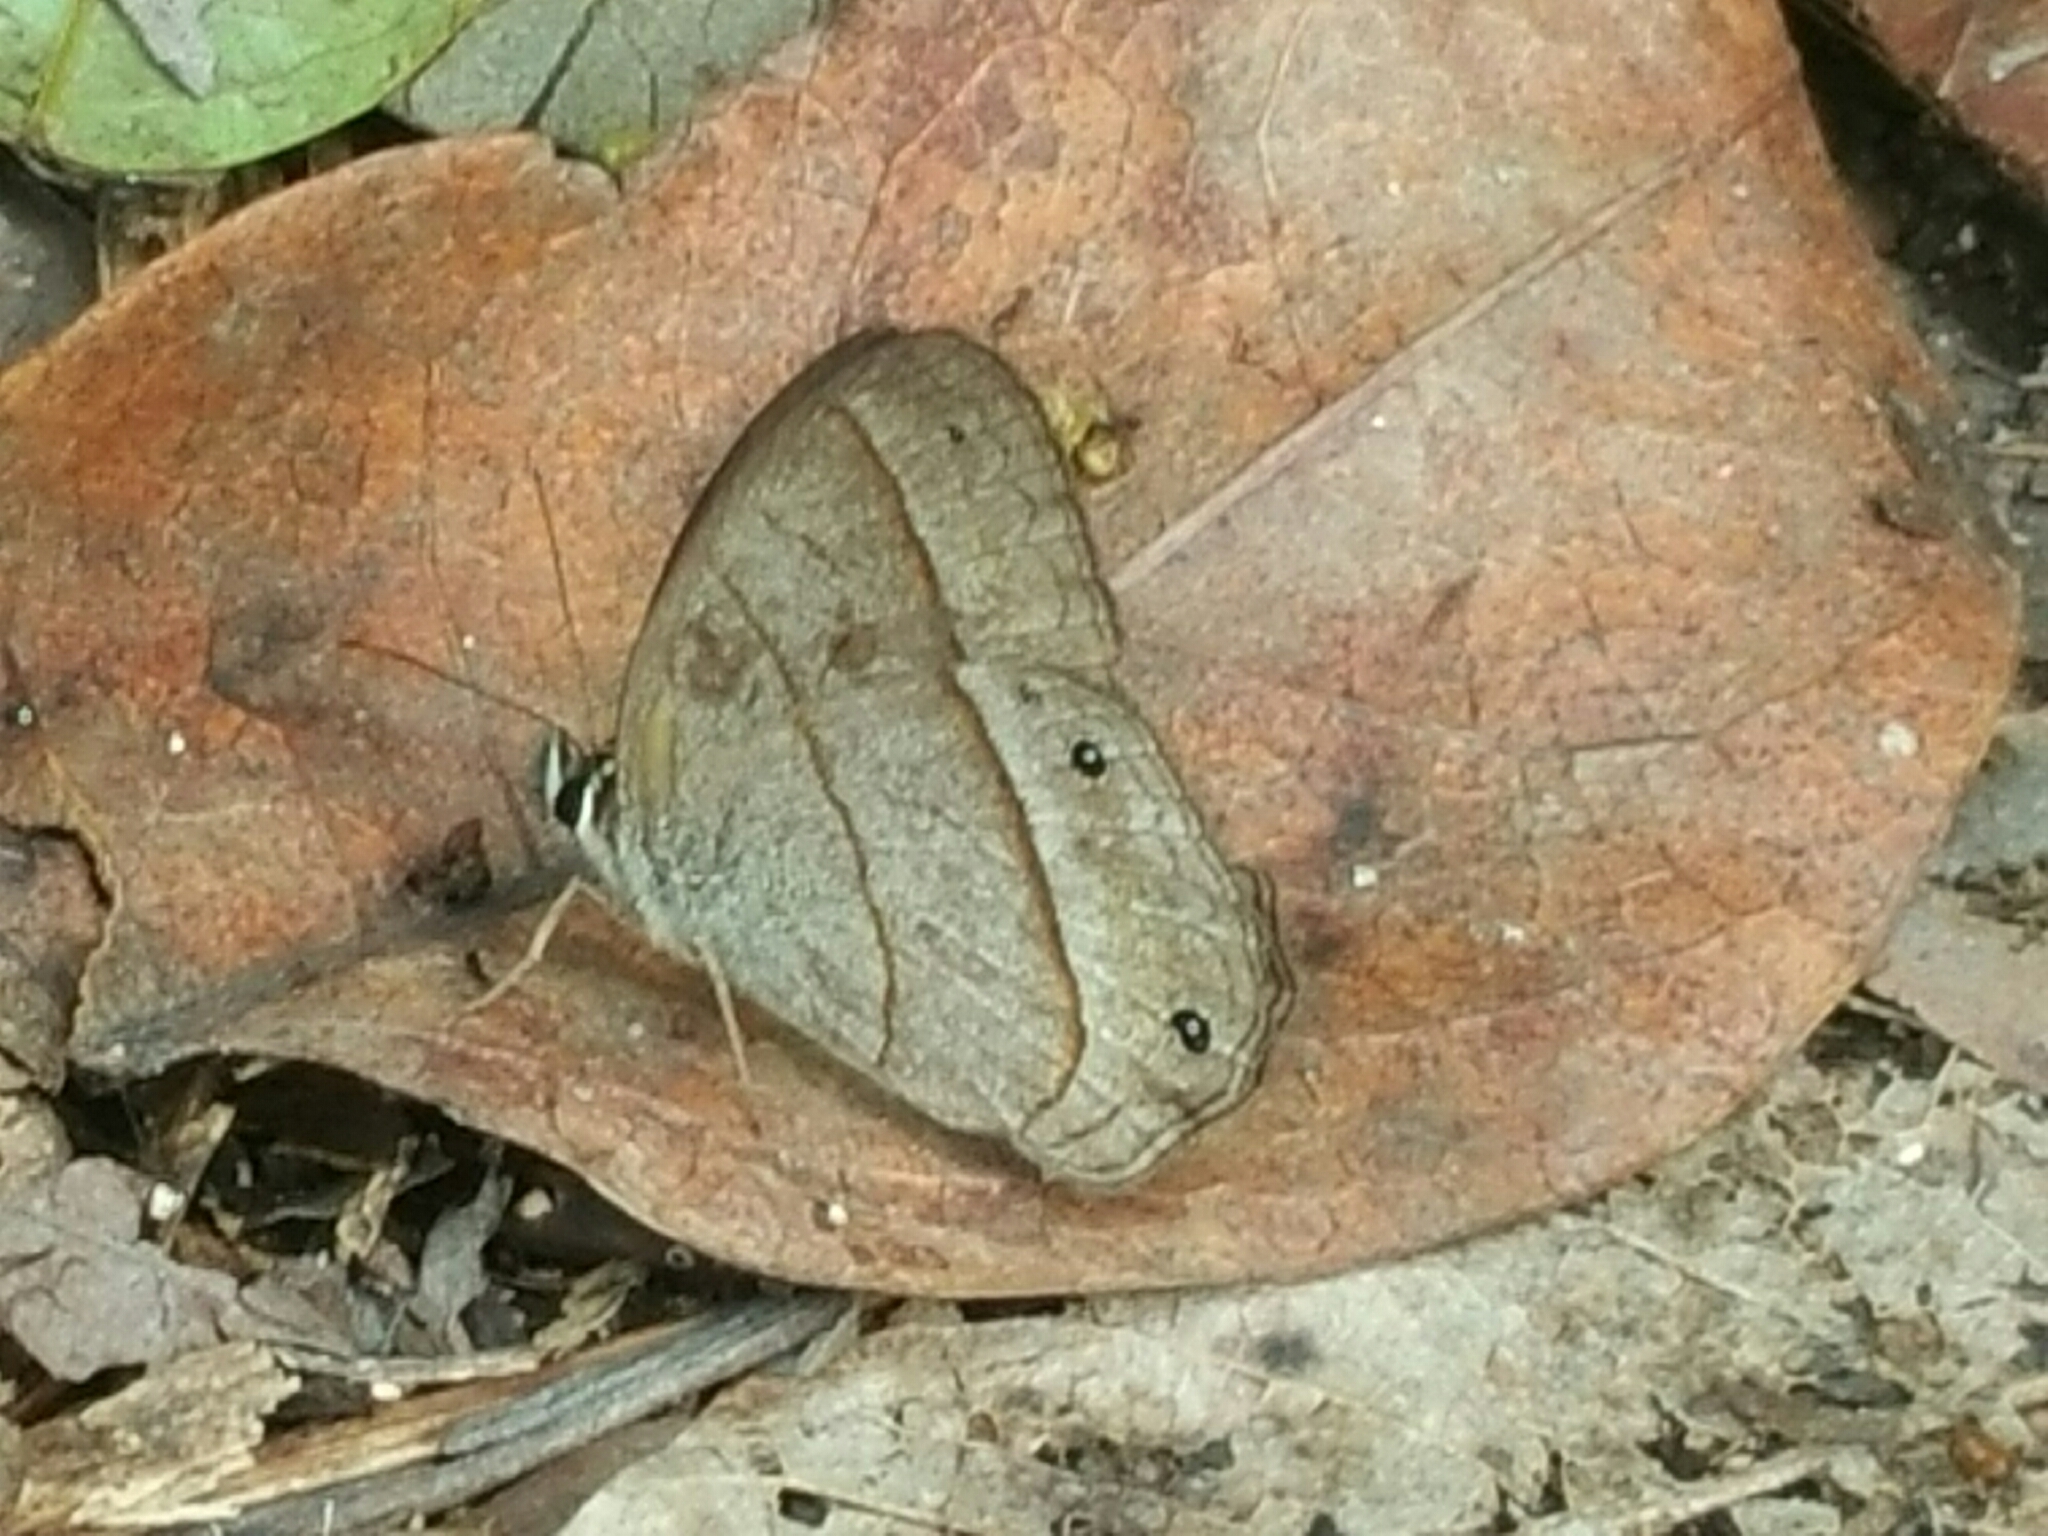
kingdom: Animalia
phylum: Arthropoda
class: Insecta
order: Lepidoptera
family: Nymphalidae
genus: Euptychia
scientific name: Euptychia Cissia pompilia
